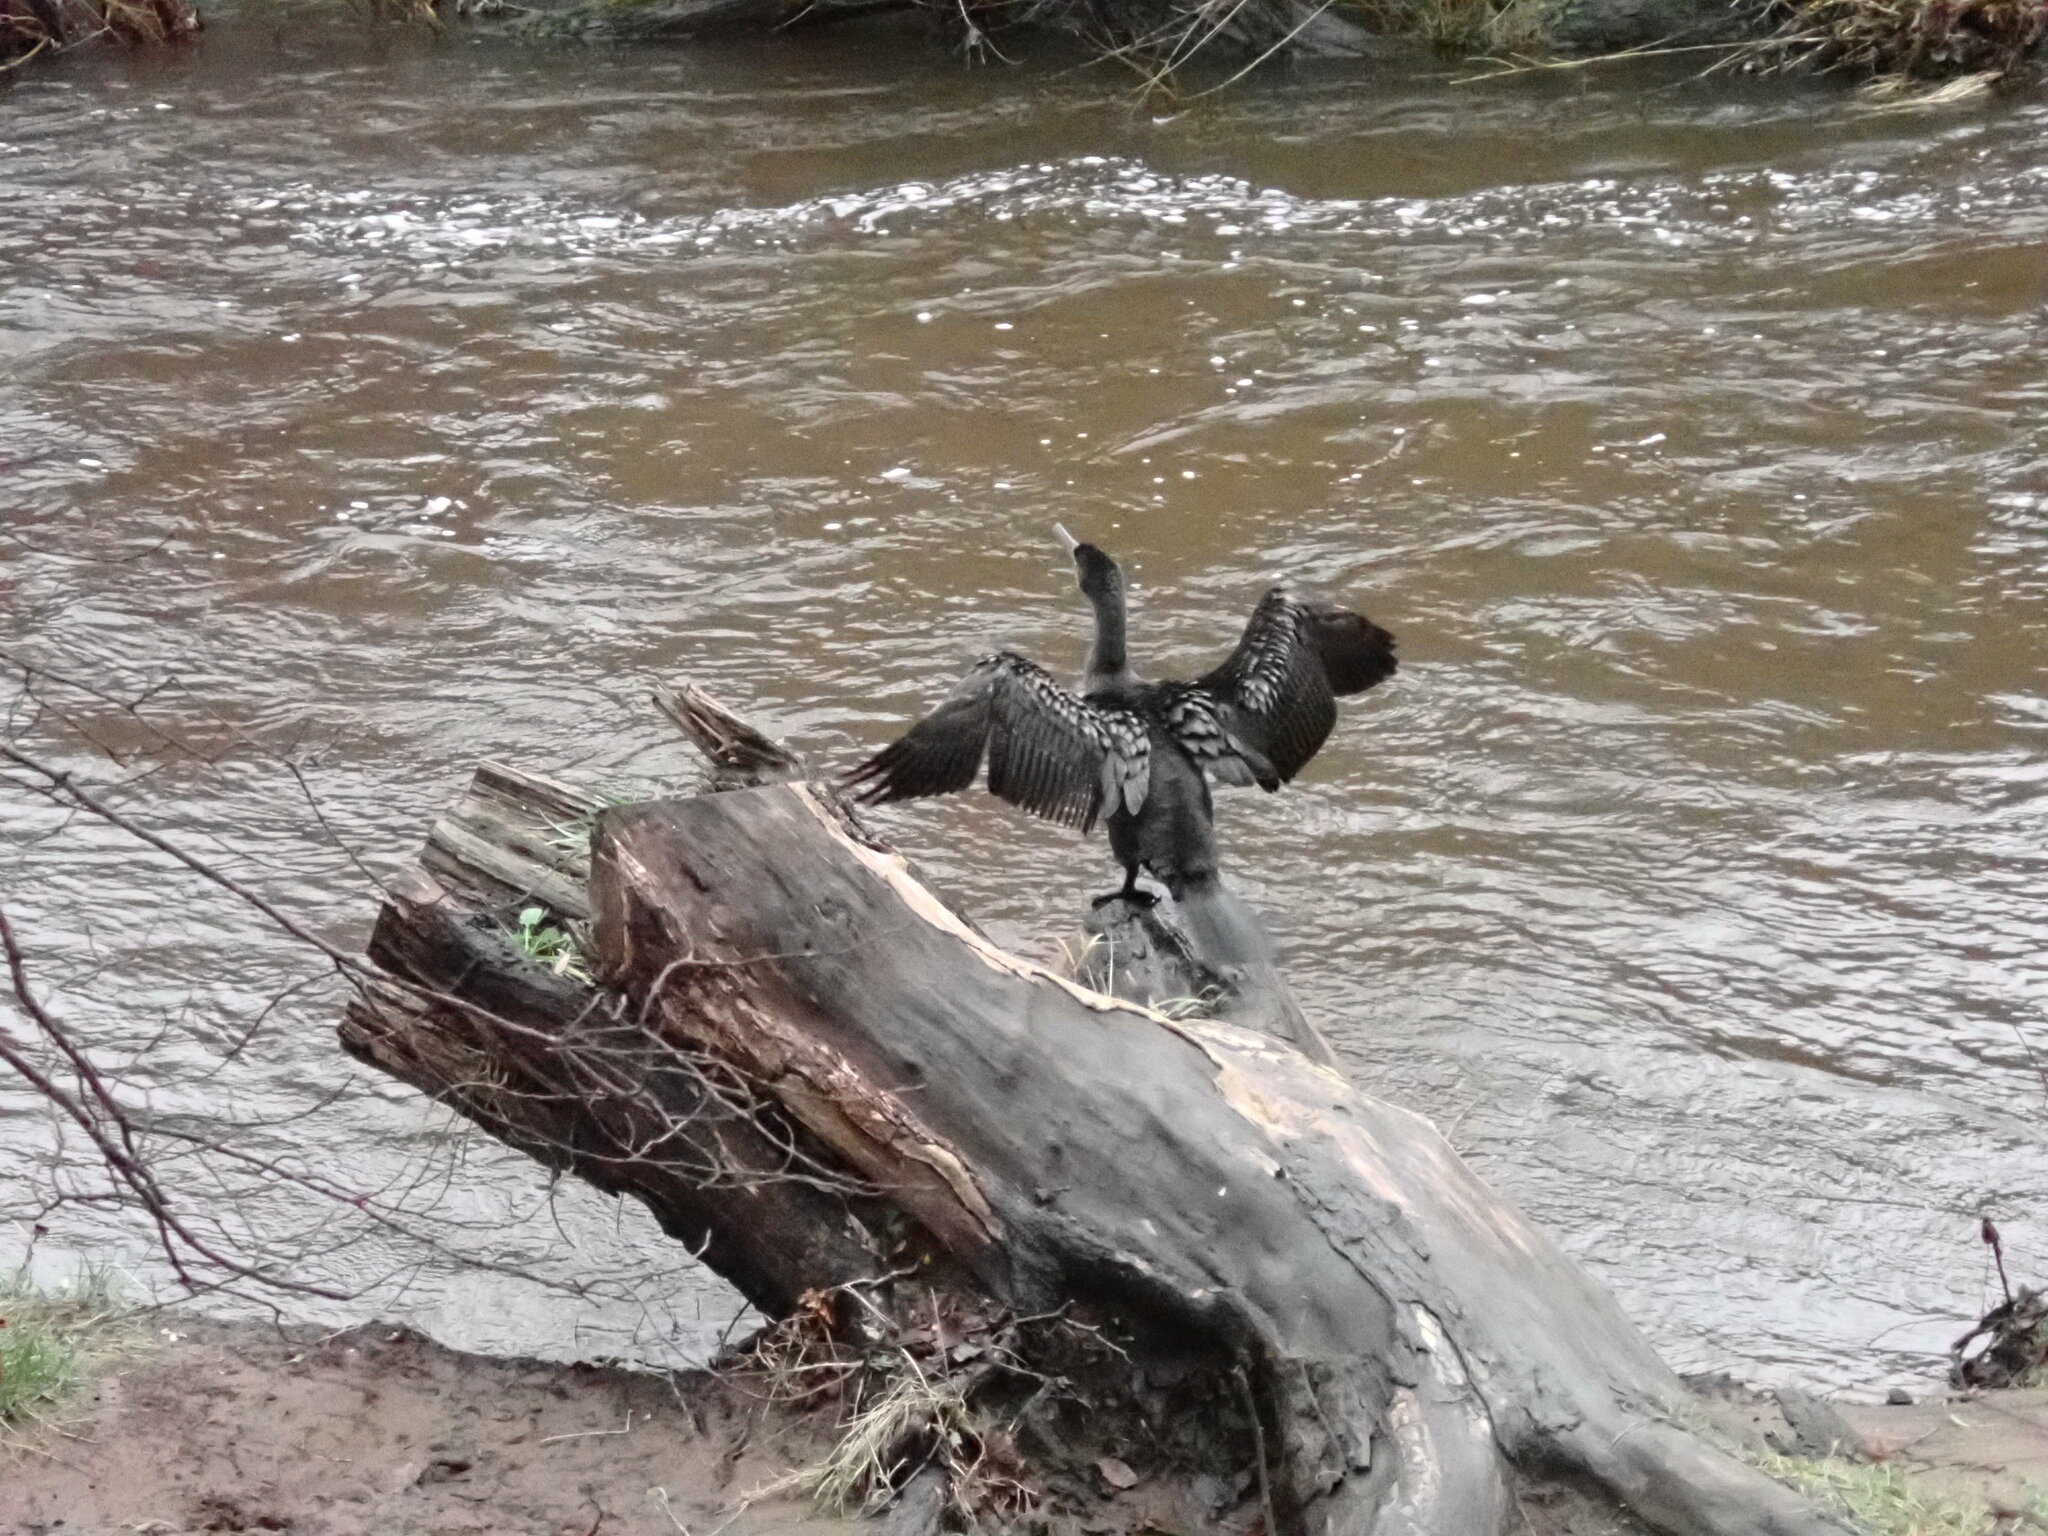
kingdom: Animalia
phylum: Chordata
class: Aves
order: Suliformes
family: Phalacrocoracidae
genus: Phalacrocorax
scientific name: Phalacrocorax carbo
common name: Great cormorant
